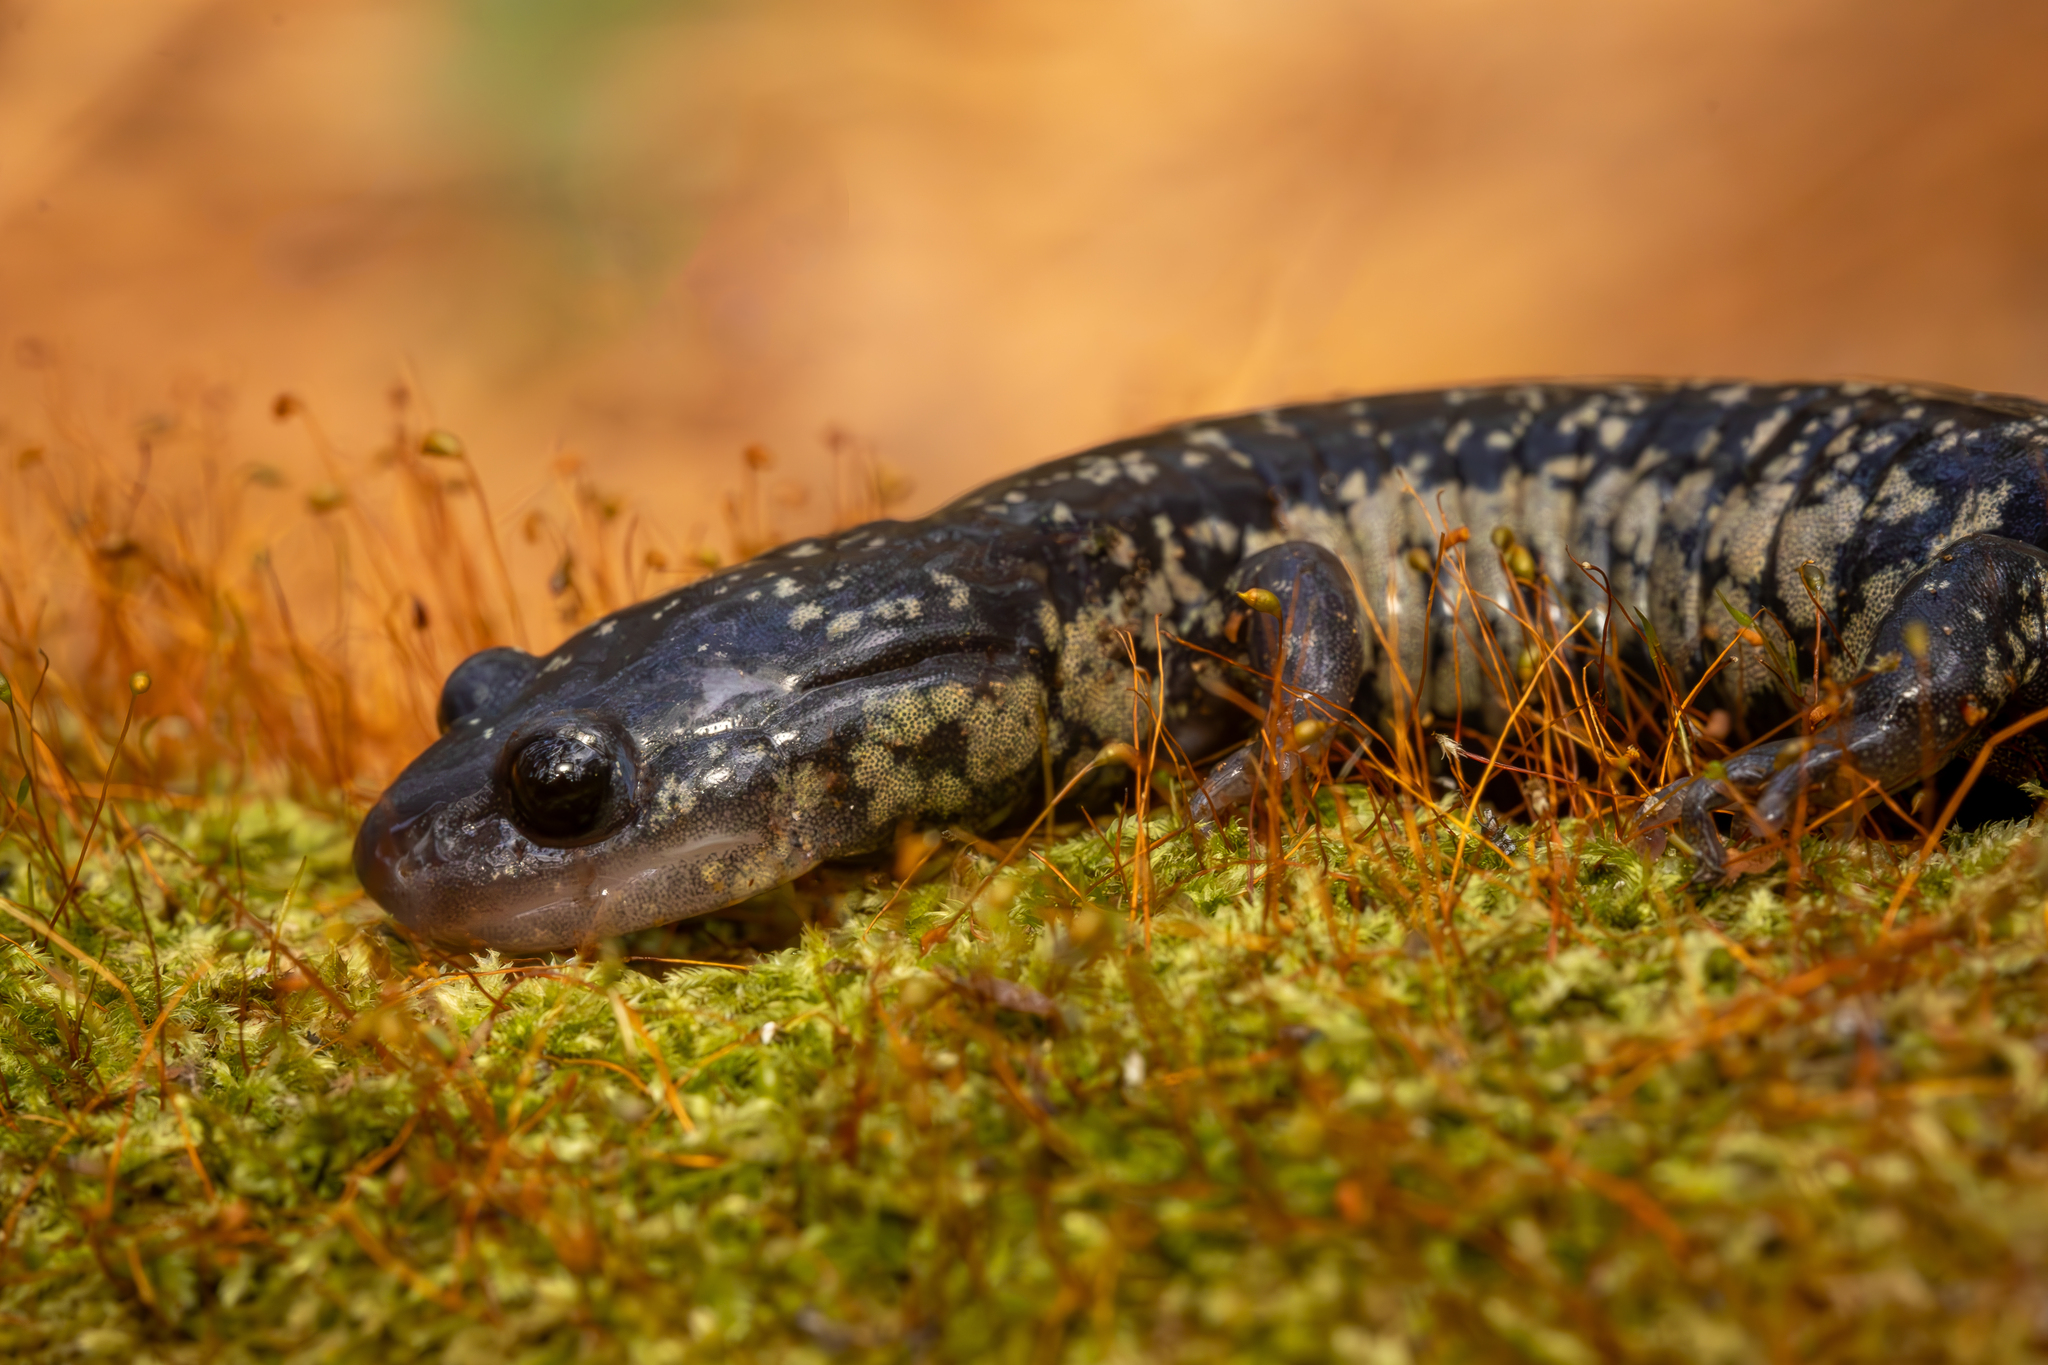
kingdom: Animalia
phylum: Chordata
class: Amphibia
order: Caudata
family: Plethodontidae
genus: Plethodon
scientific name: Plethodon glutinosus
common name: Northern slimy salamander
